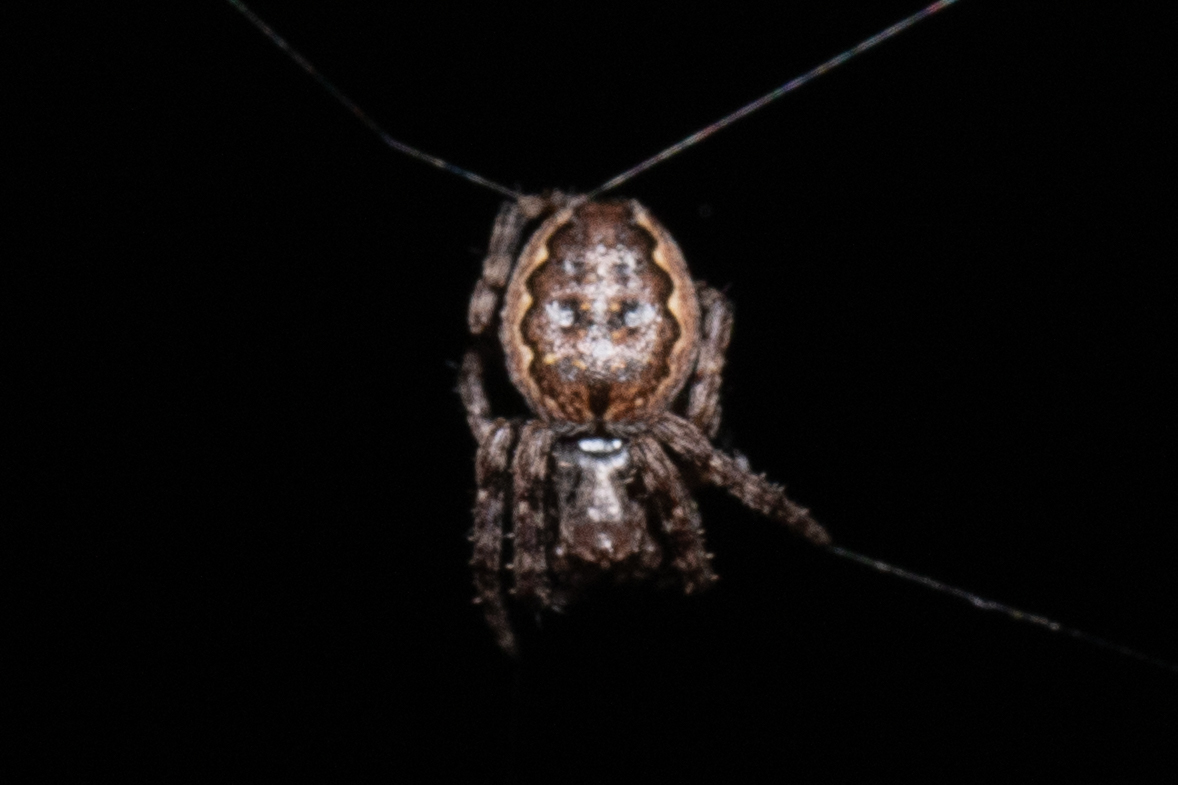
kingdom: Animalia
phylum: Arthropoda
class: Arachnida
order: Araneae
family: Araneidae
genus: Nuctenea
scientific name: Nuctenea umbratica
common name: Toad spider
